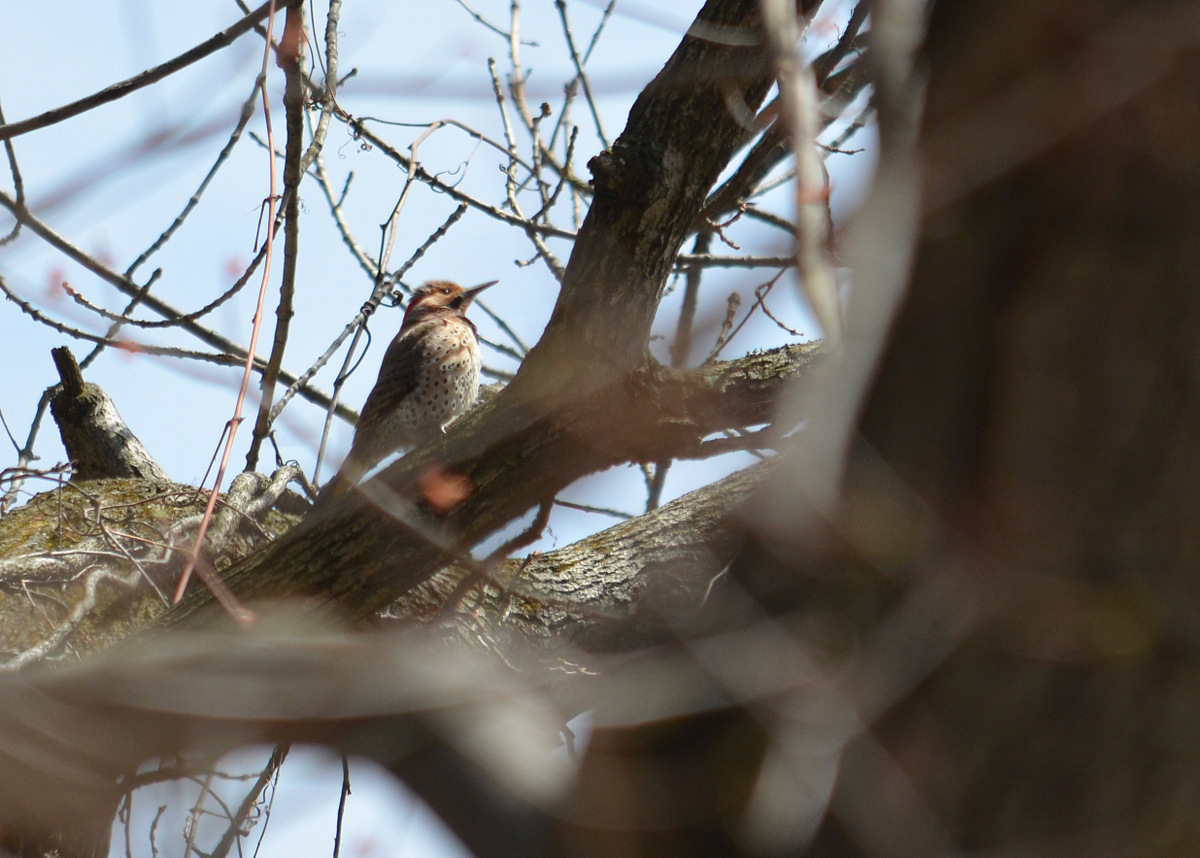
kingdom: Animalia
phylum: Chordata
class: Aves
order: Piciformes
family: Picidae
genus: Colaptes
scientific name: Colaptes auratus
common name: Northern flicker
